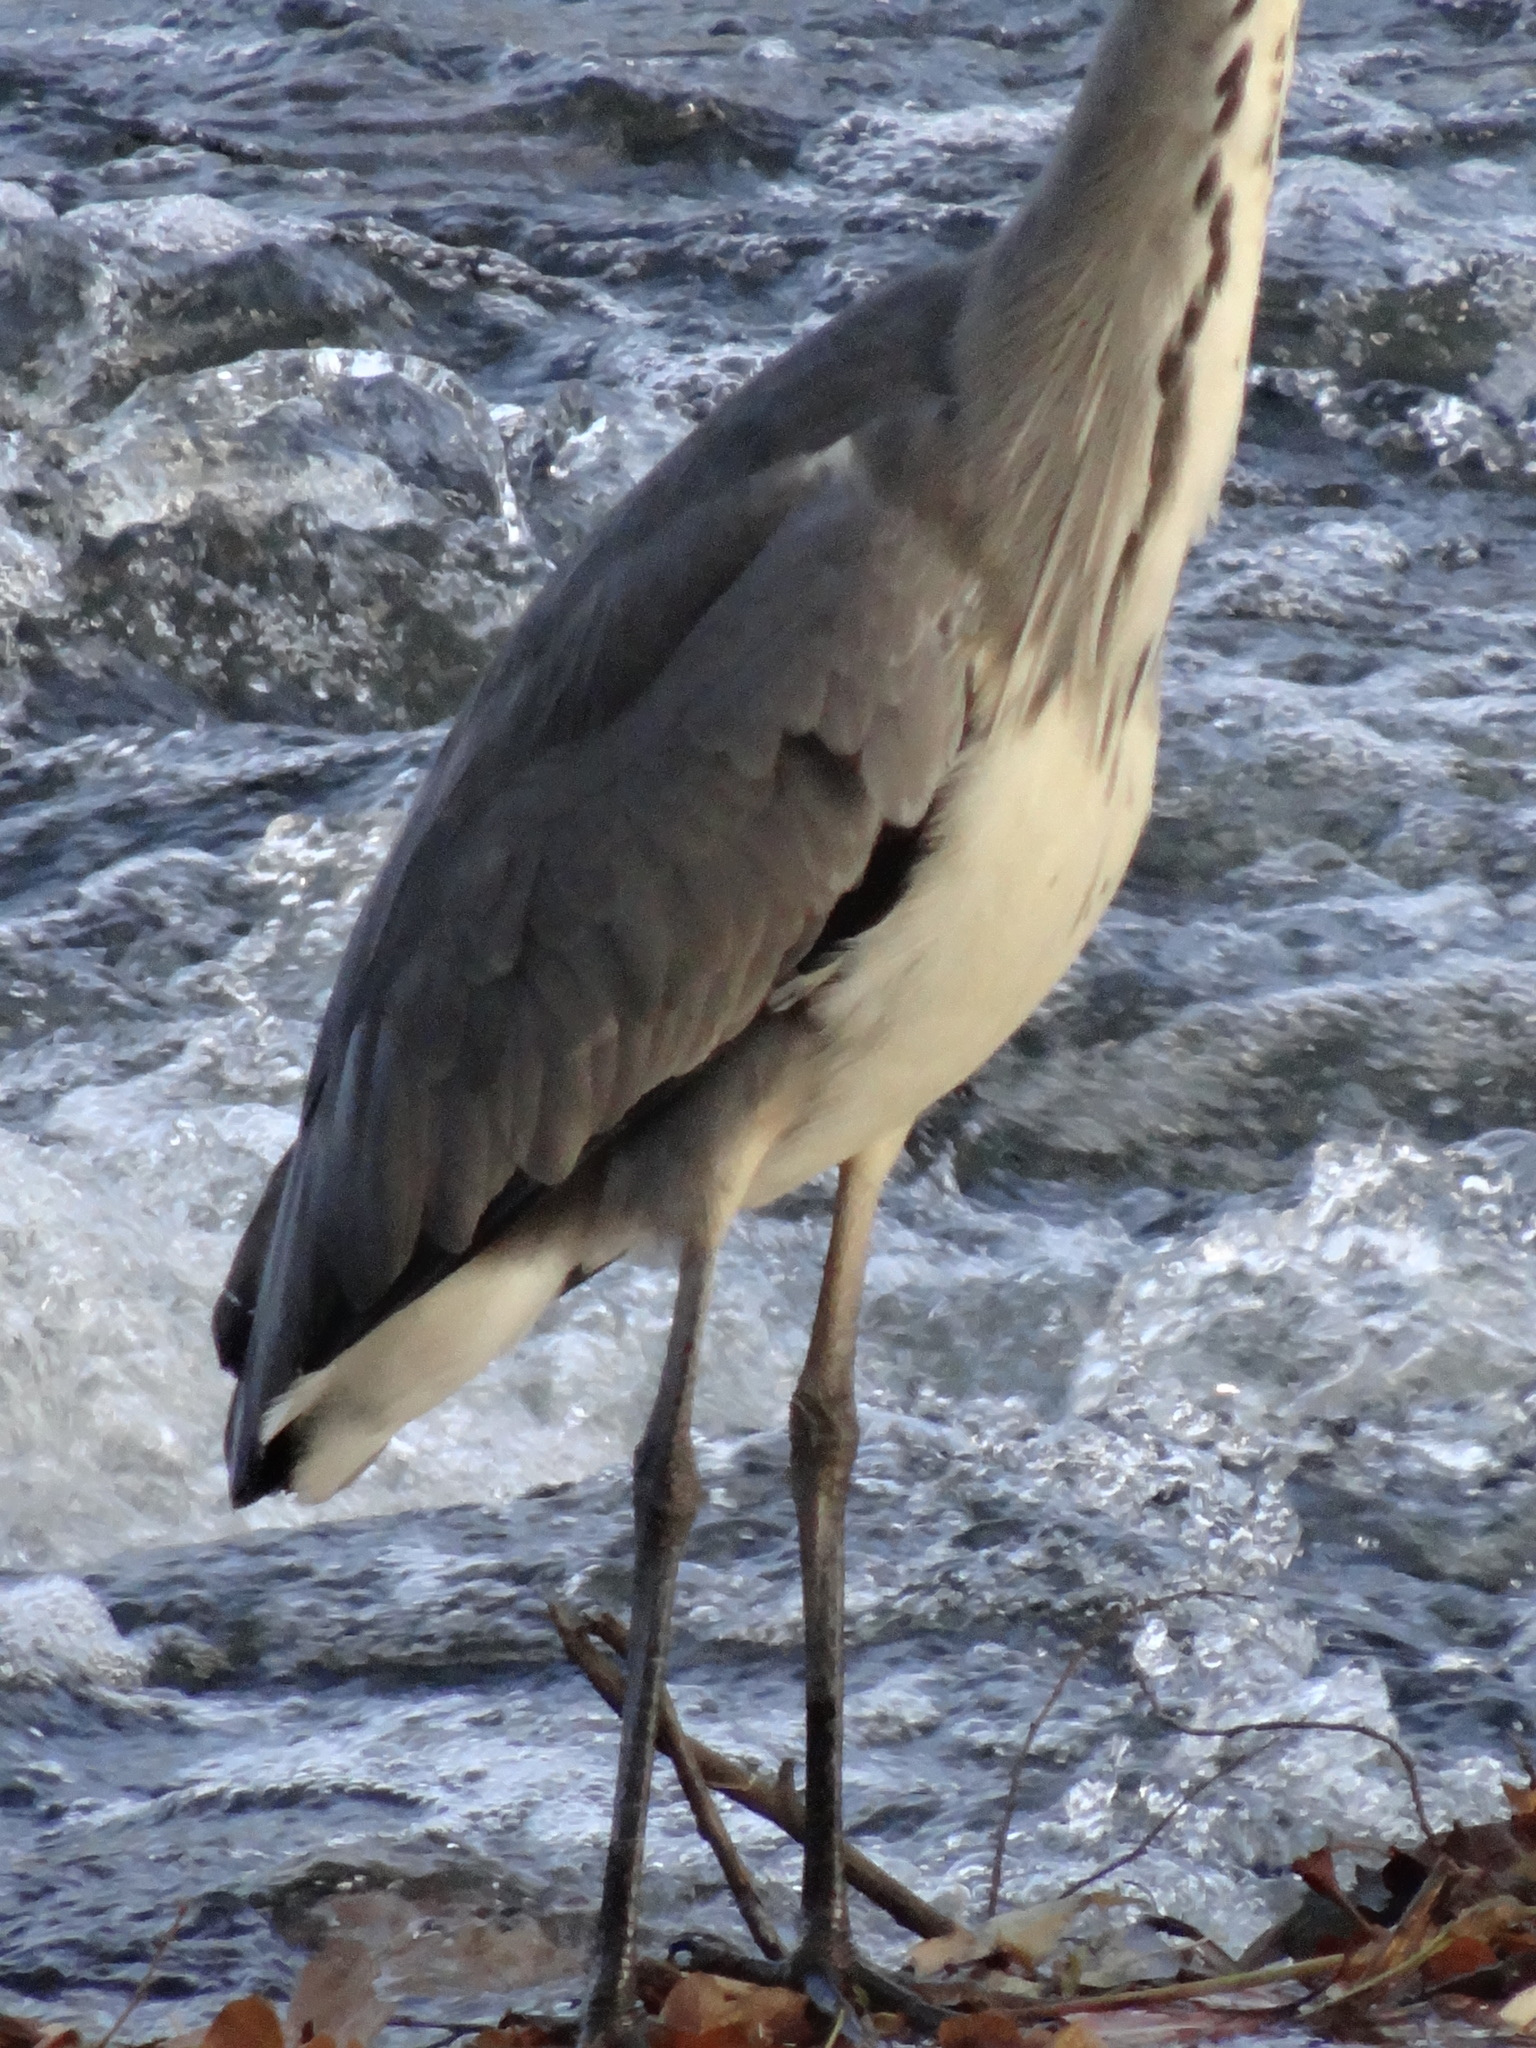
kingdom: Animalia
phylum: Chordata
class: Aves
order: Pelecaniformes
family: Ardeidae
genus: Ardea
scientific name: Ardea cinerea
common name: Grey heron
